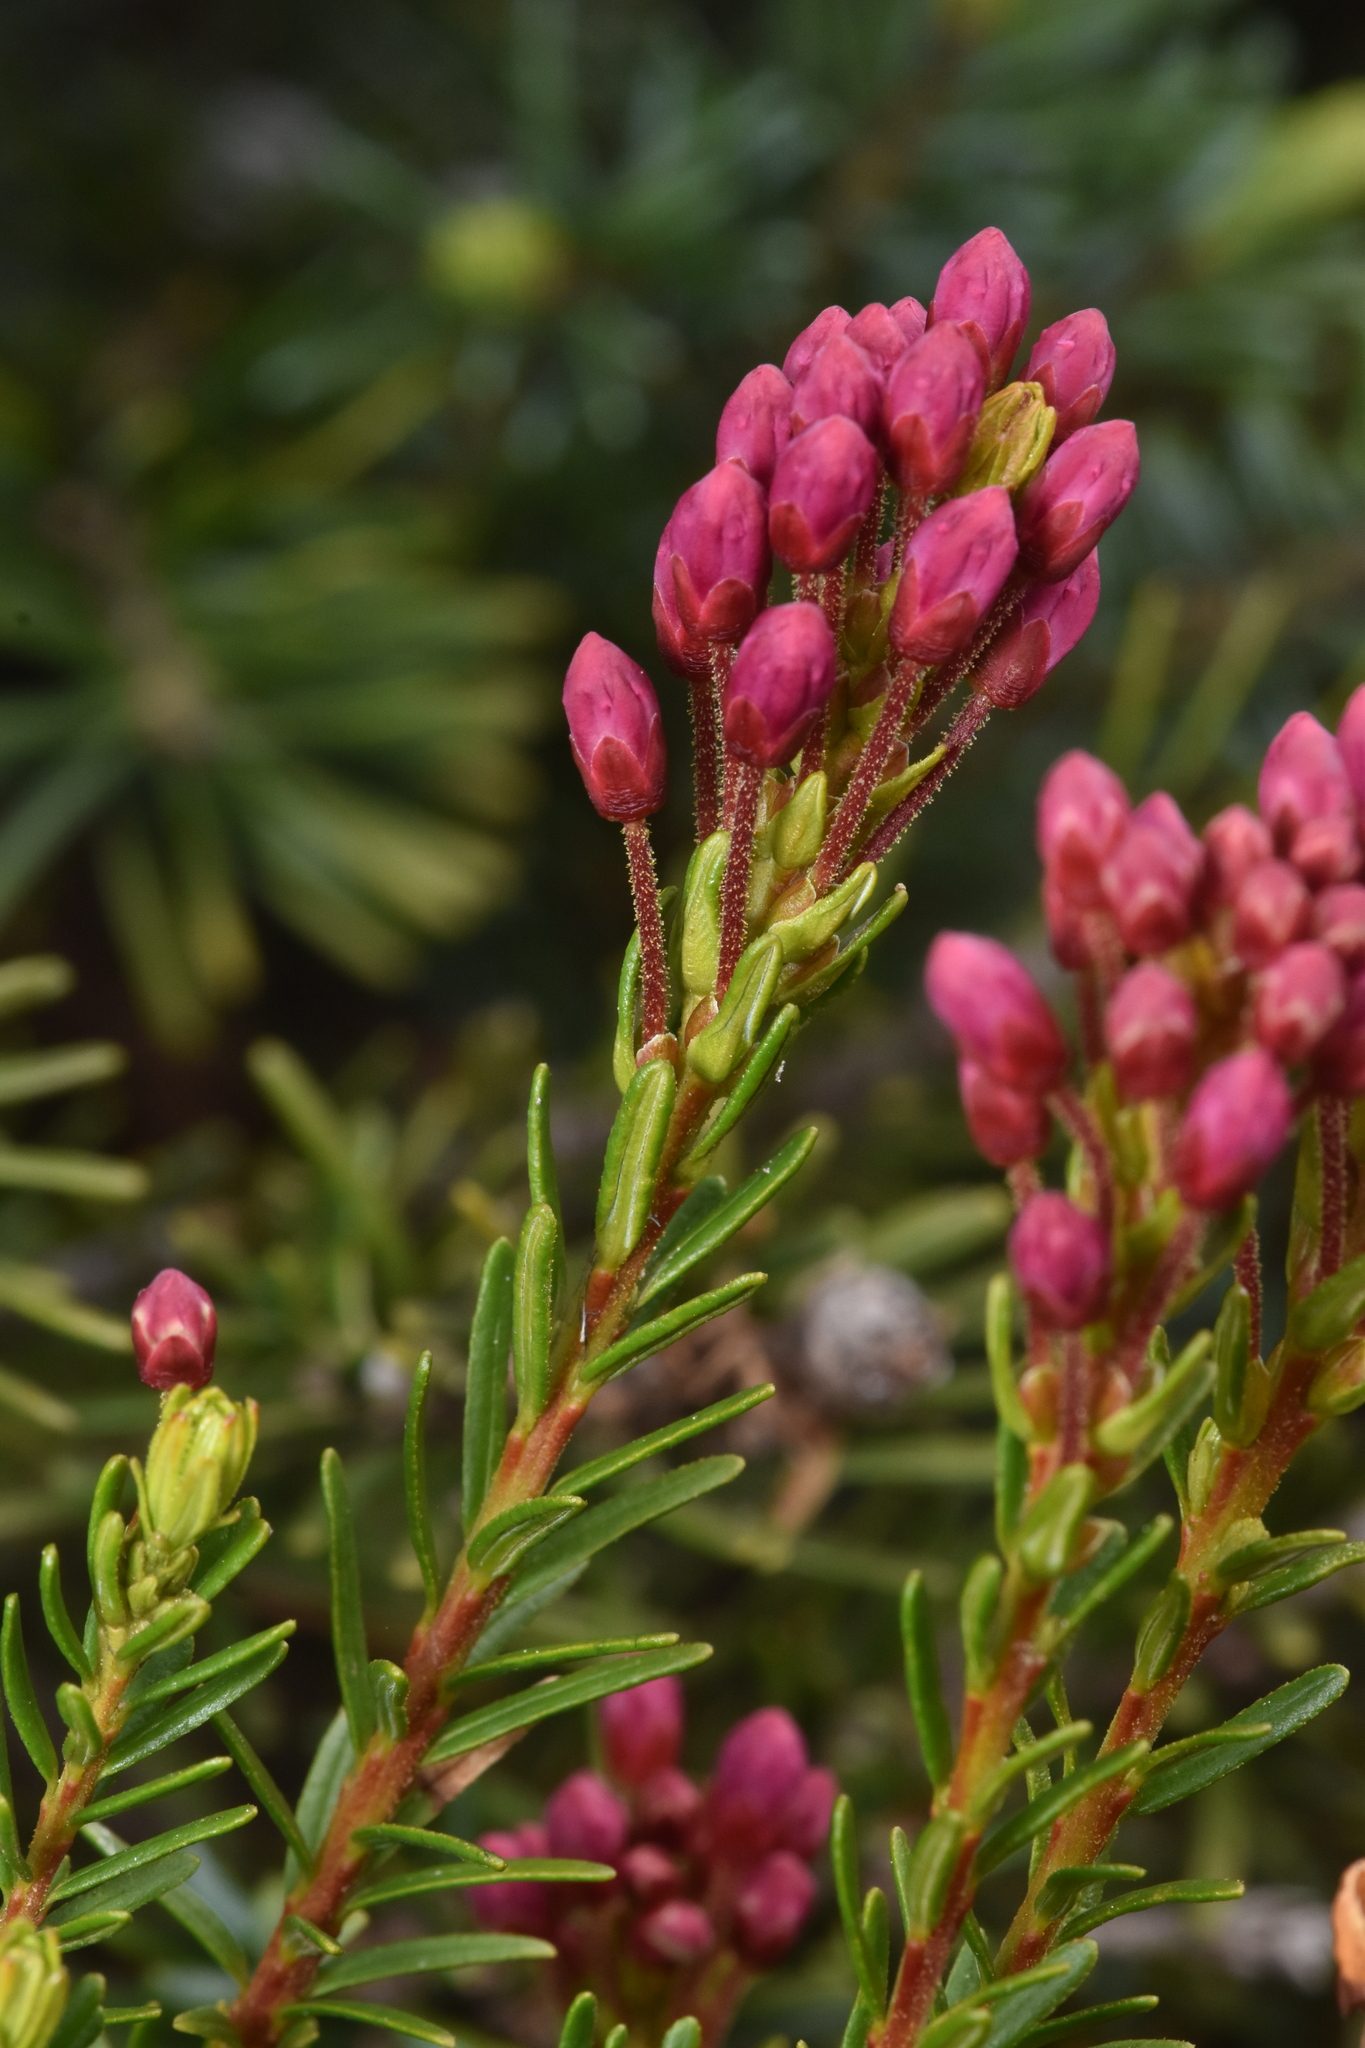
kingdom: Plantae
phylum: Tracheophyta
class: Magnoliopsida
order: Ericales
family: Ericaceae
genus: Phyllodoce
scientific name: Phyllodoce empetriformis
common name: Pink mountain heather
